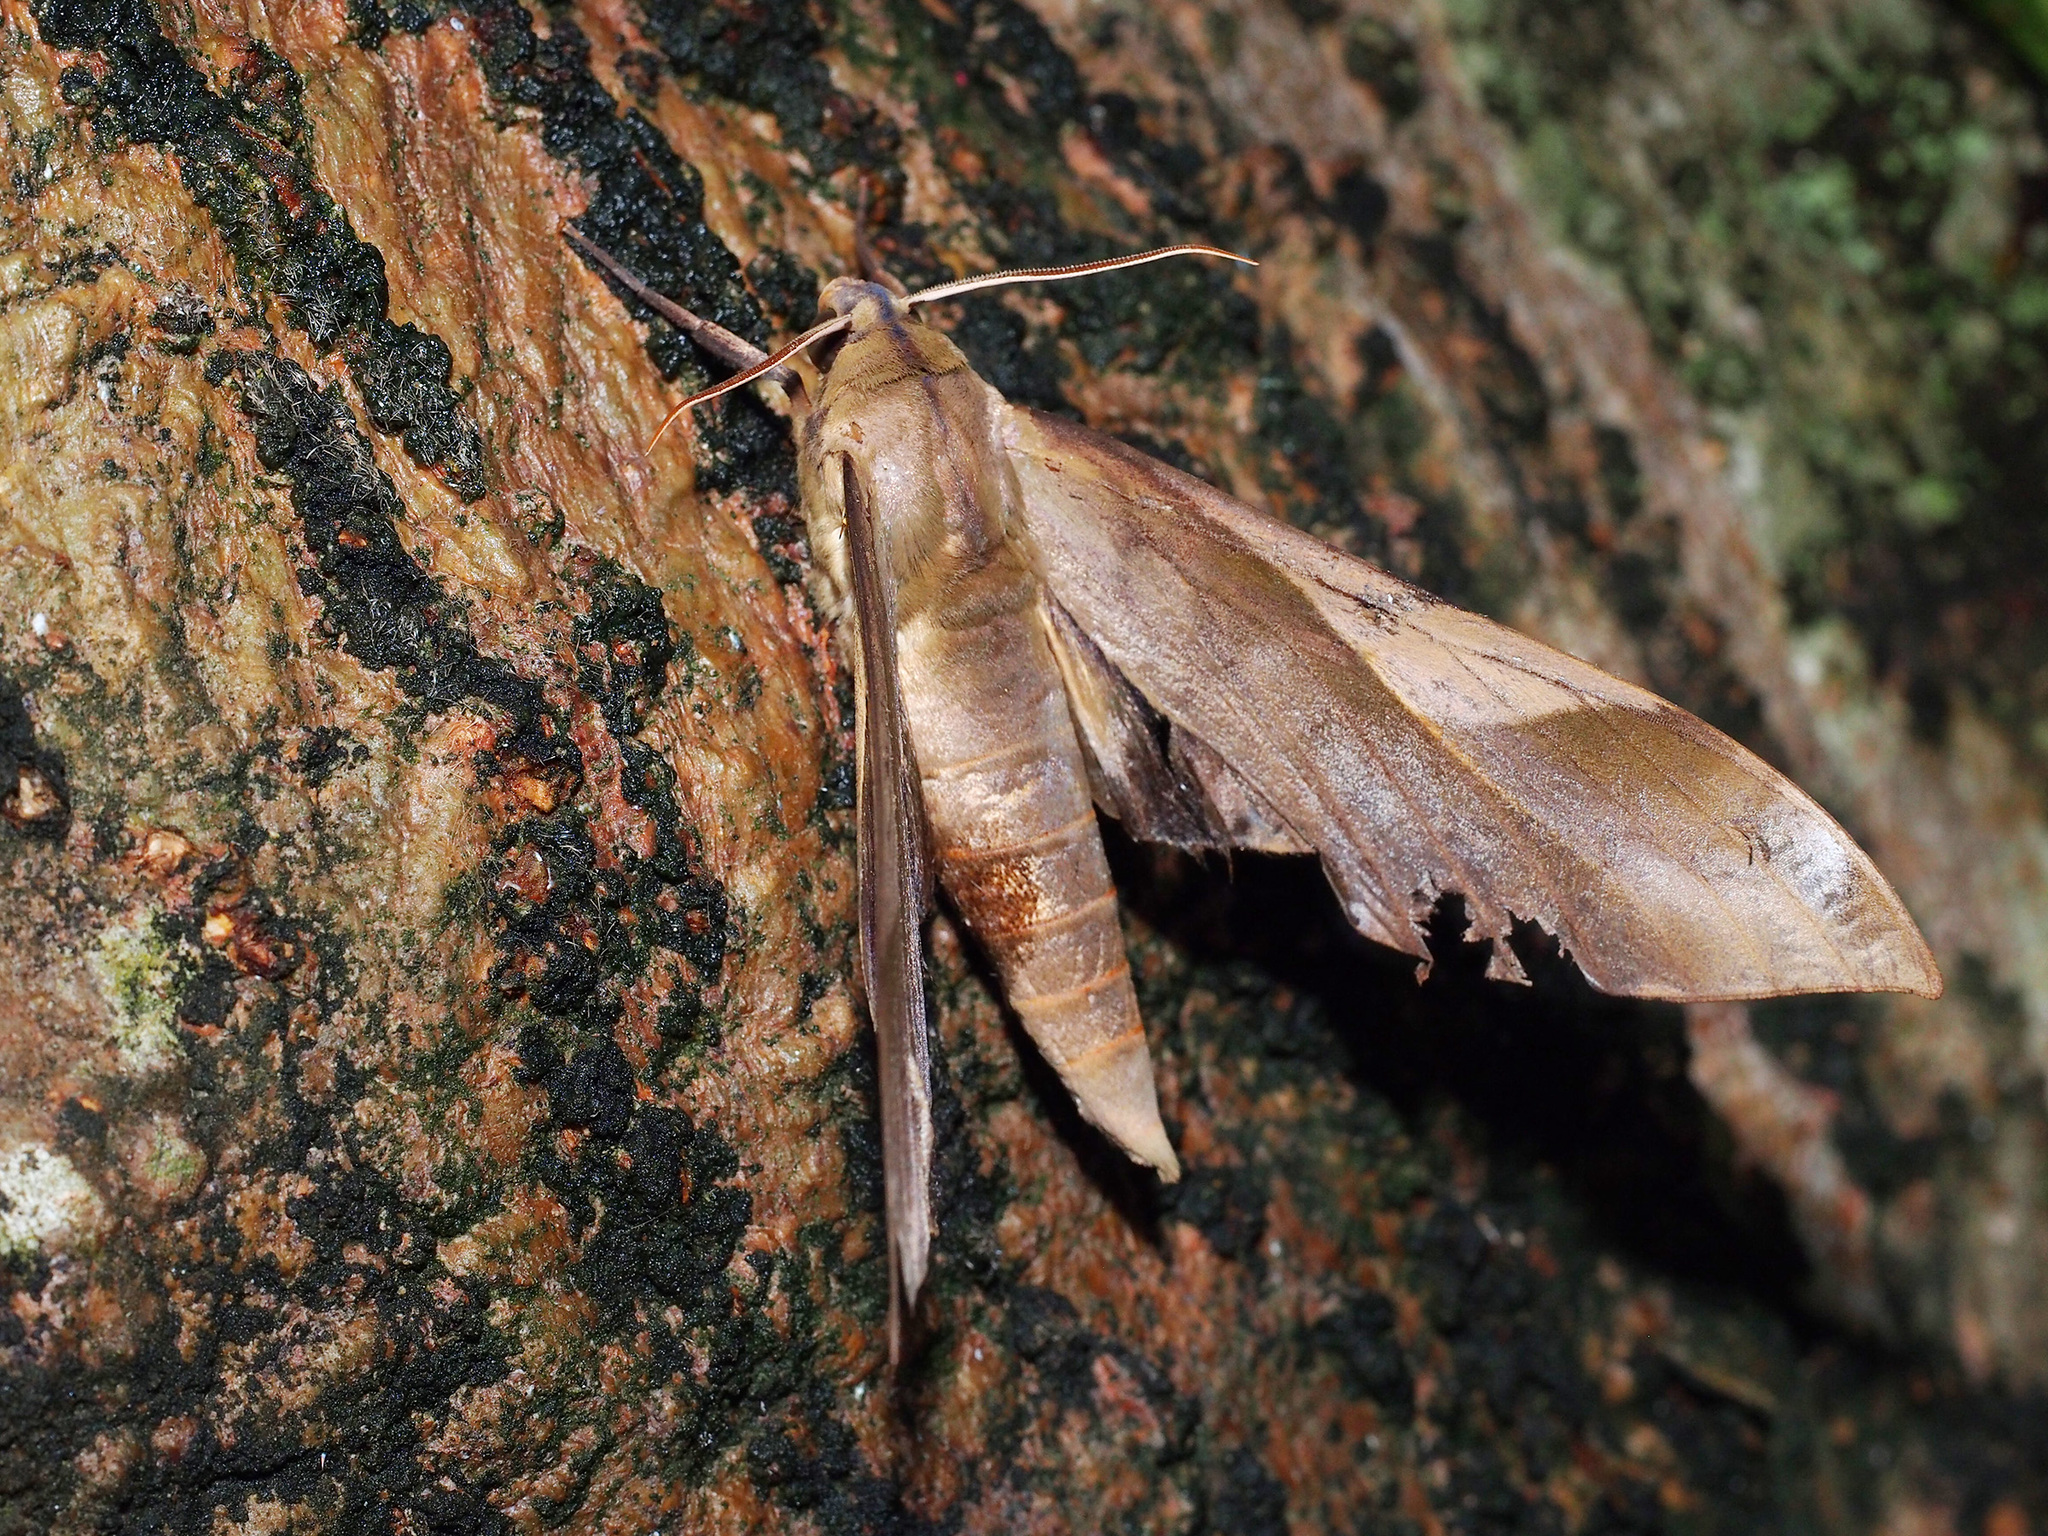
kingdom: Animalia
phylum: Arthropoda
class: Insecta
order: Lepidoptera
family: Sphingidae
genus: Clanis
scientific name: Clanis stenosema
